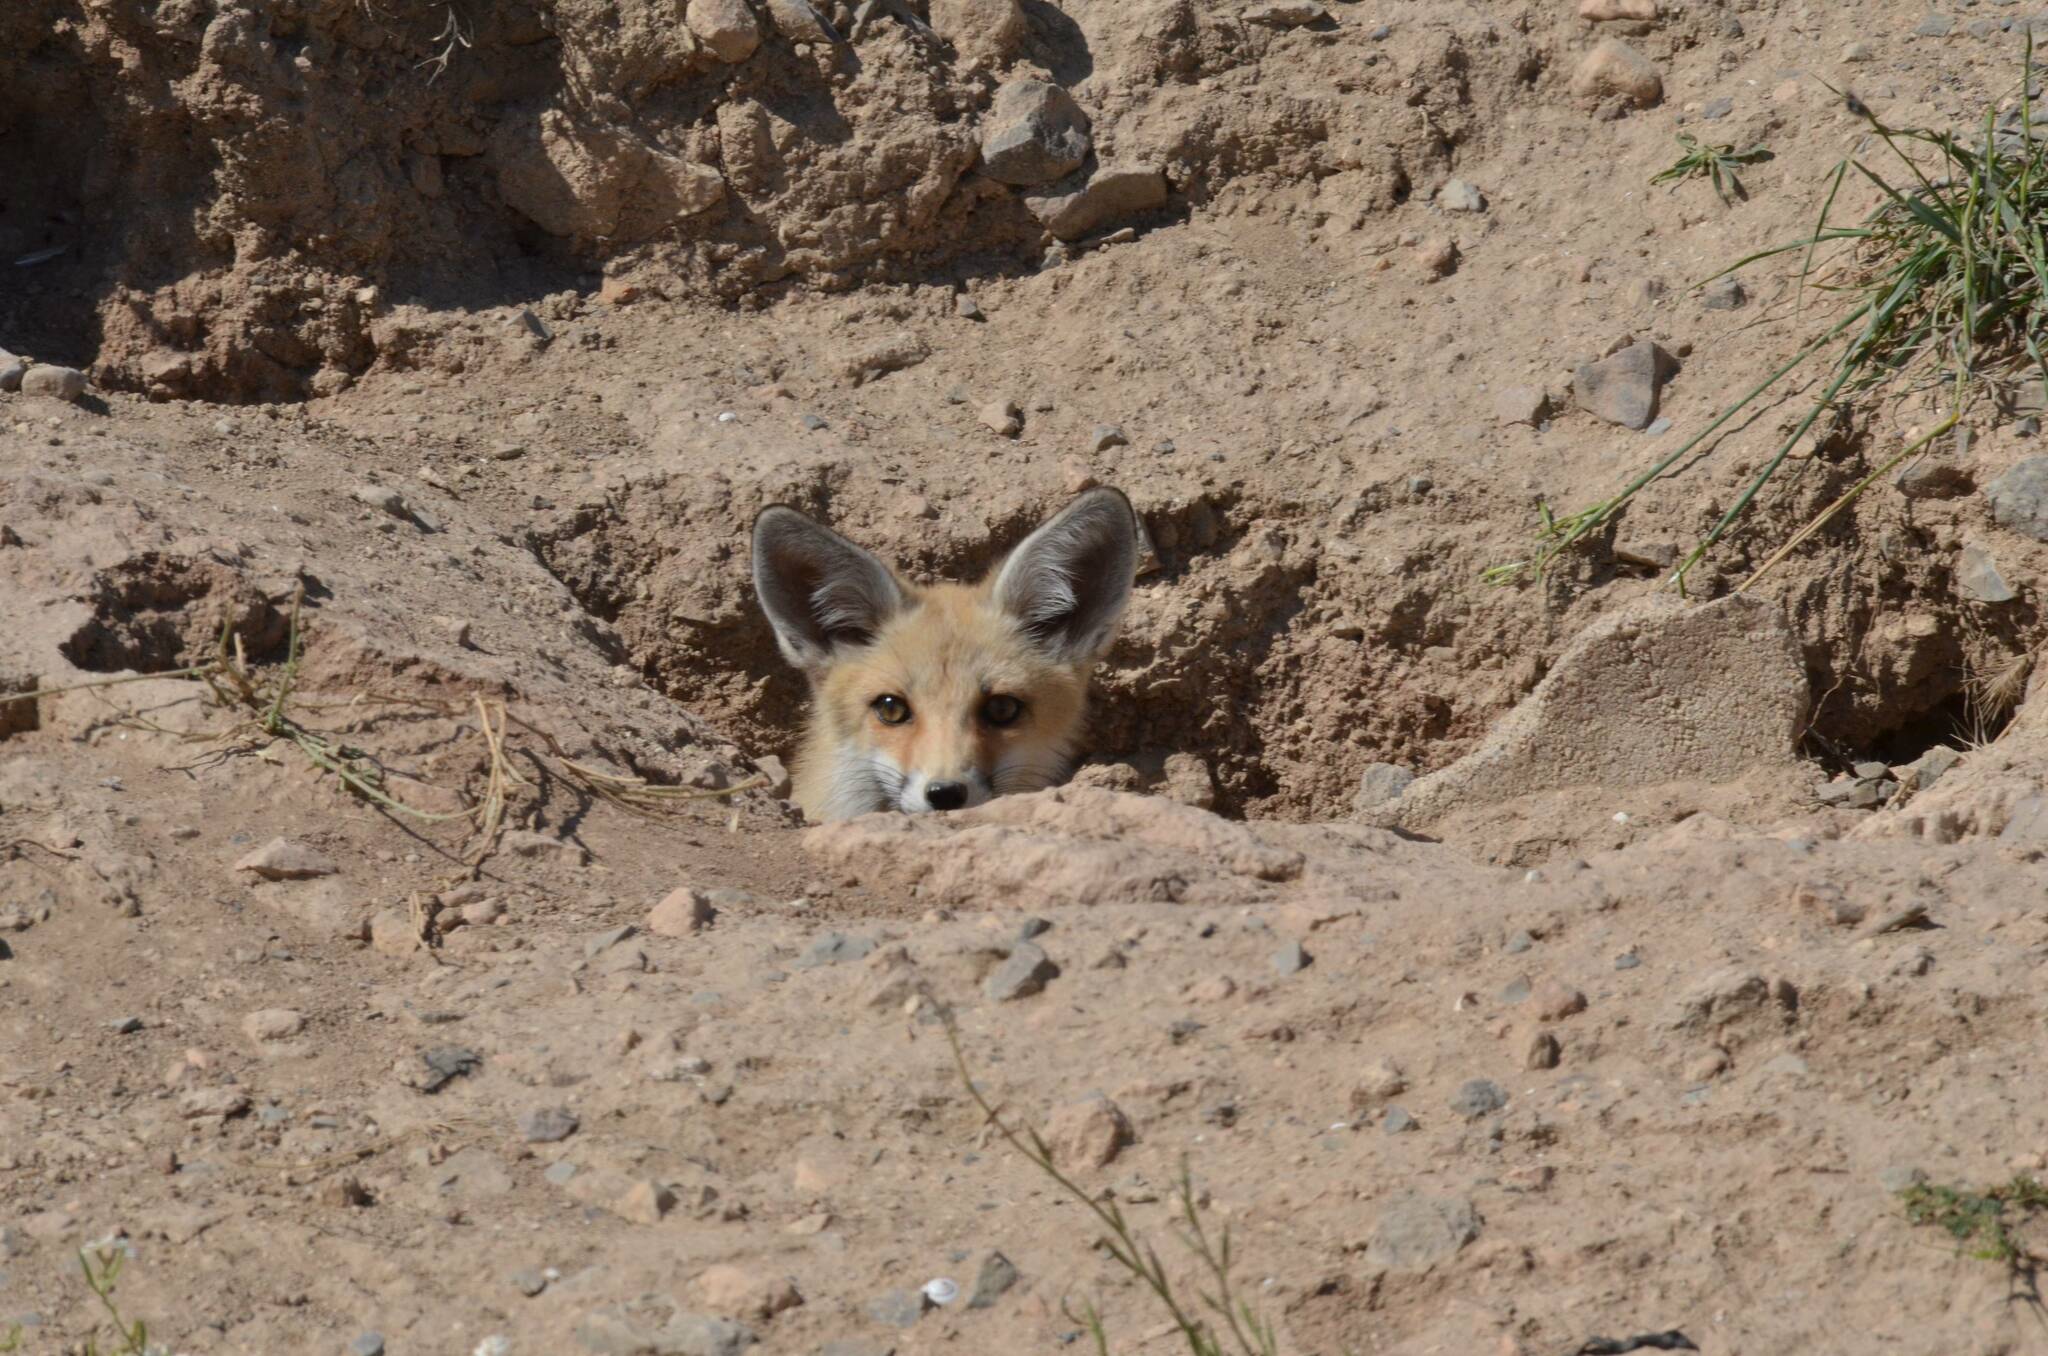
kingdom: Animalia
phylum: Chordata
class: Mammalia
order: Carnivora
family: Canidae
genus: Vulpes
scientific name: Vulpes vulpes
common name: Red fox
